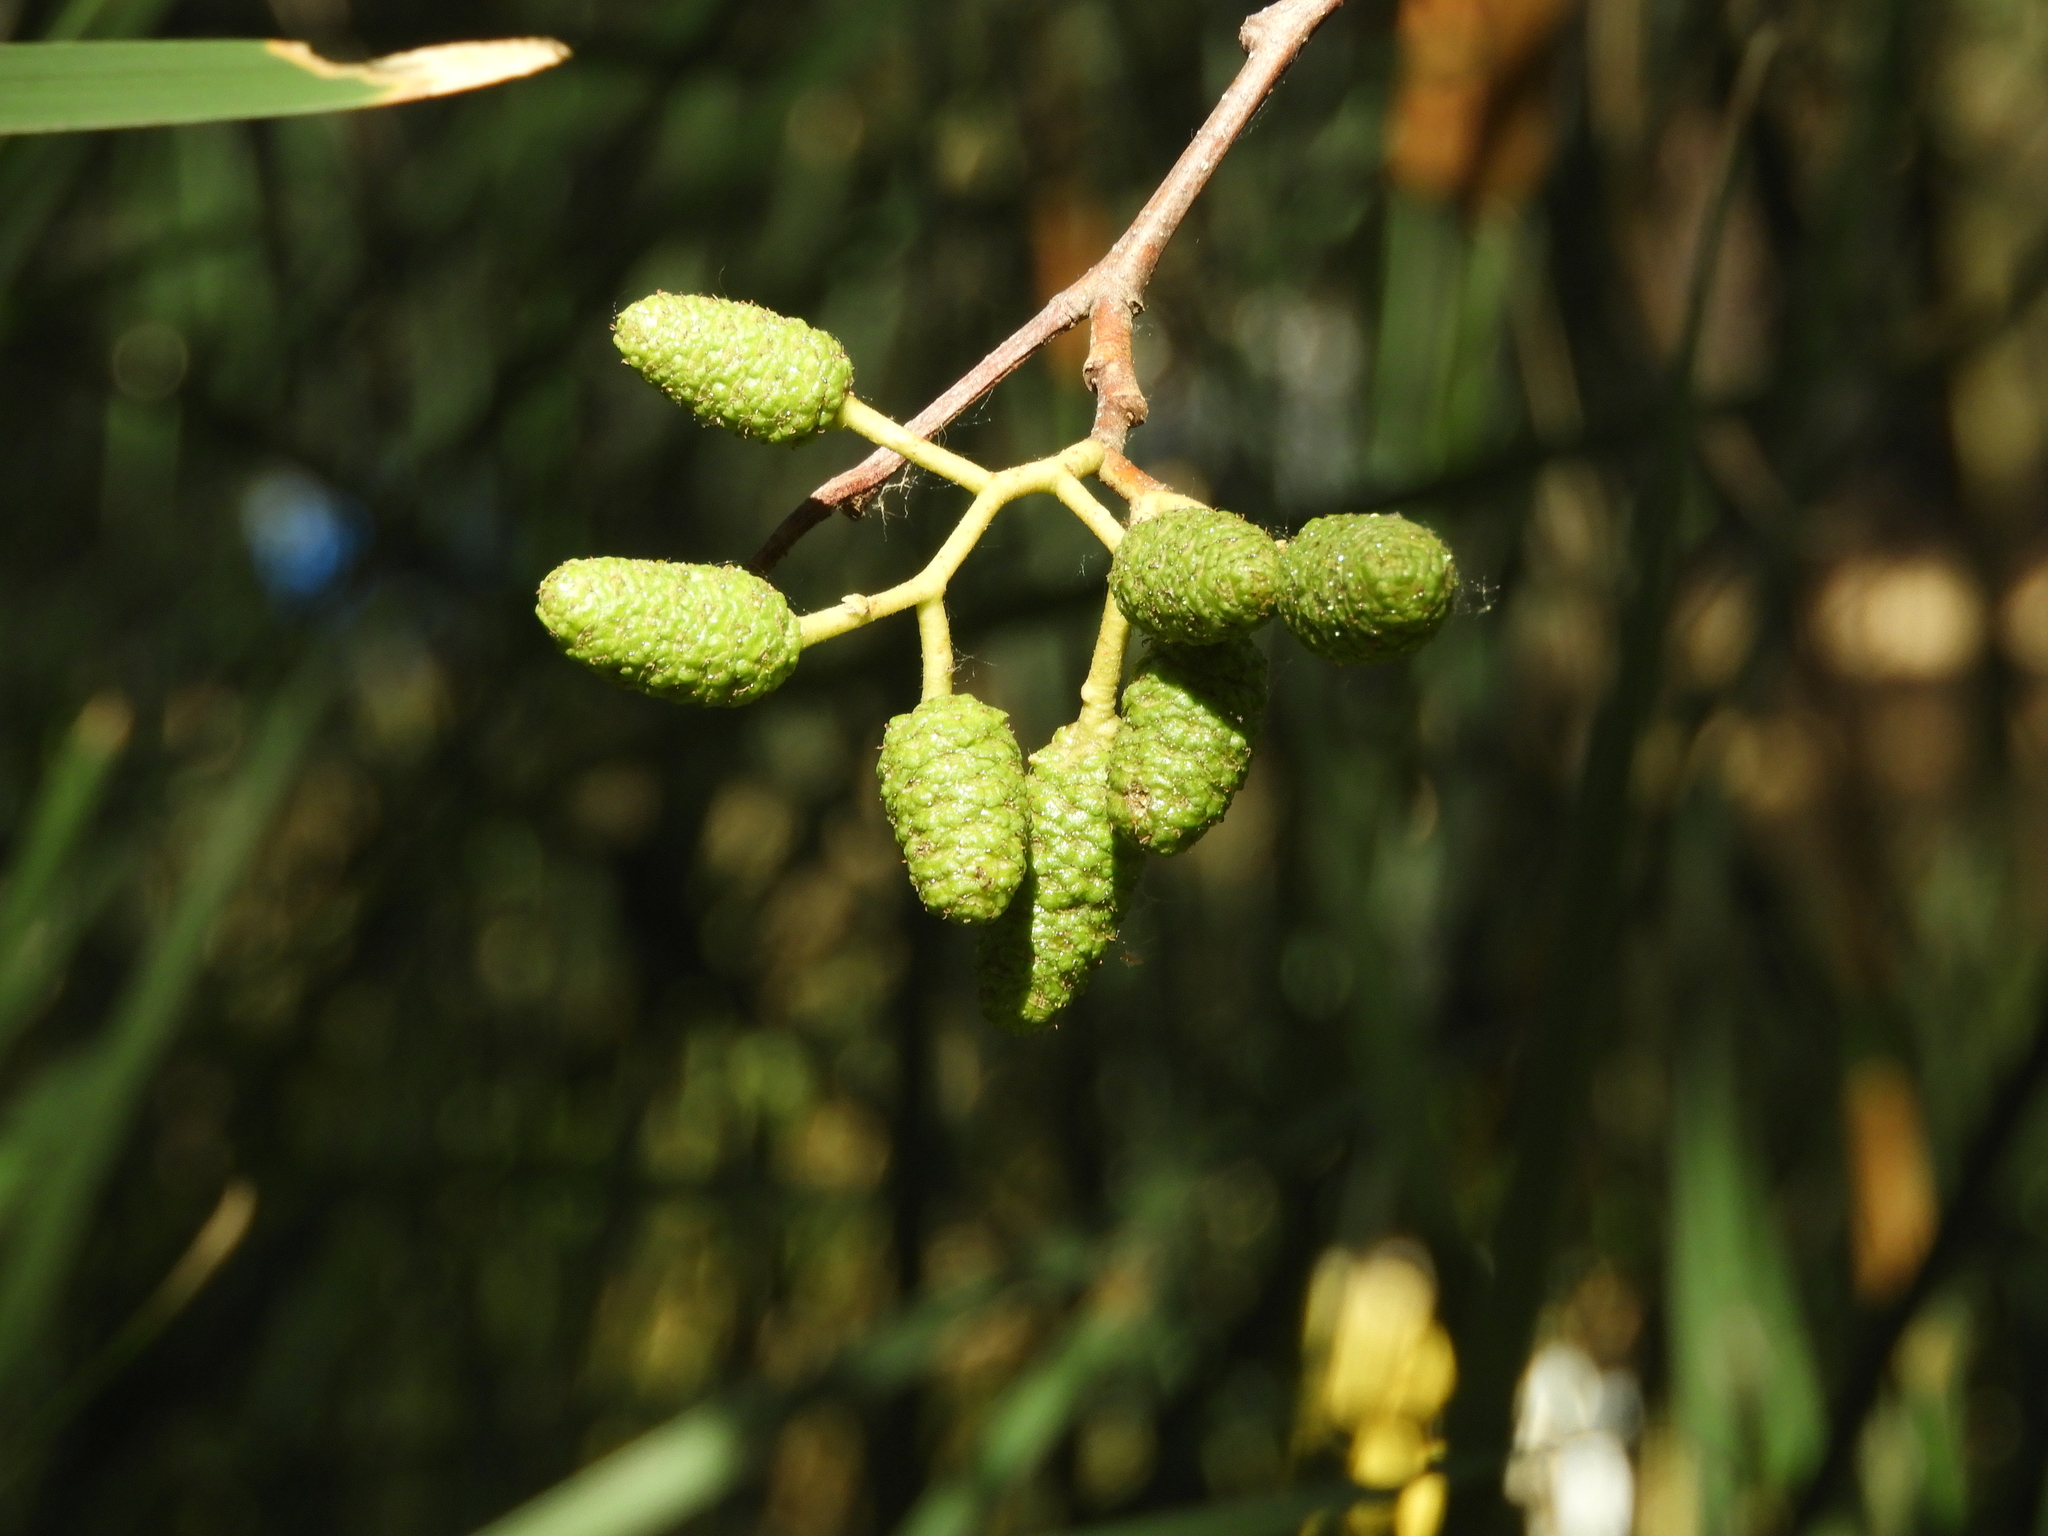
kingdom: Plantae
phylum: Tracheophyta
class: Magnoliopsida
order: Fagales
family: Betulaceae
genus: Alnus
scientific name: Alnus rhombifolia
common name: California alder
